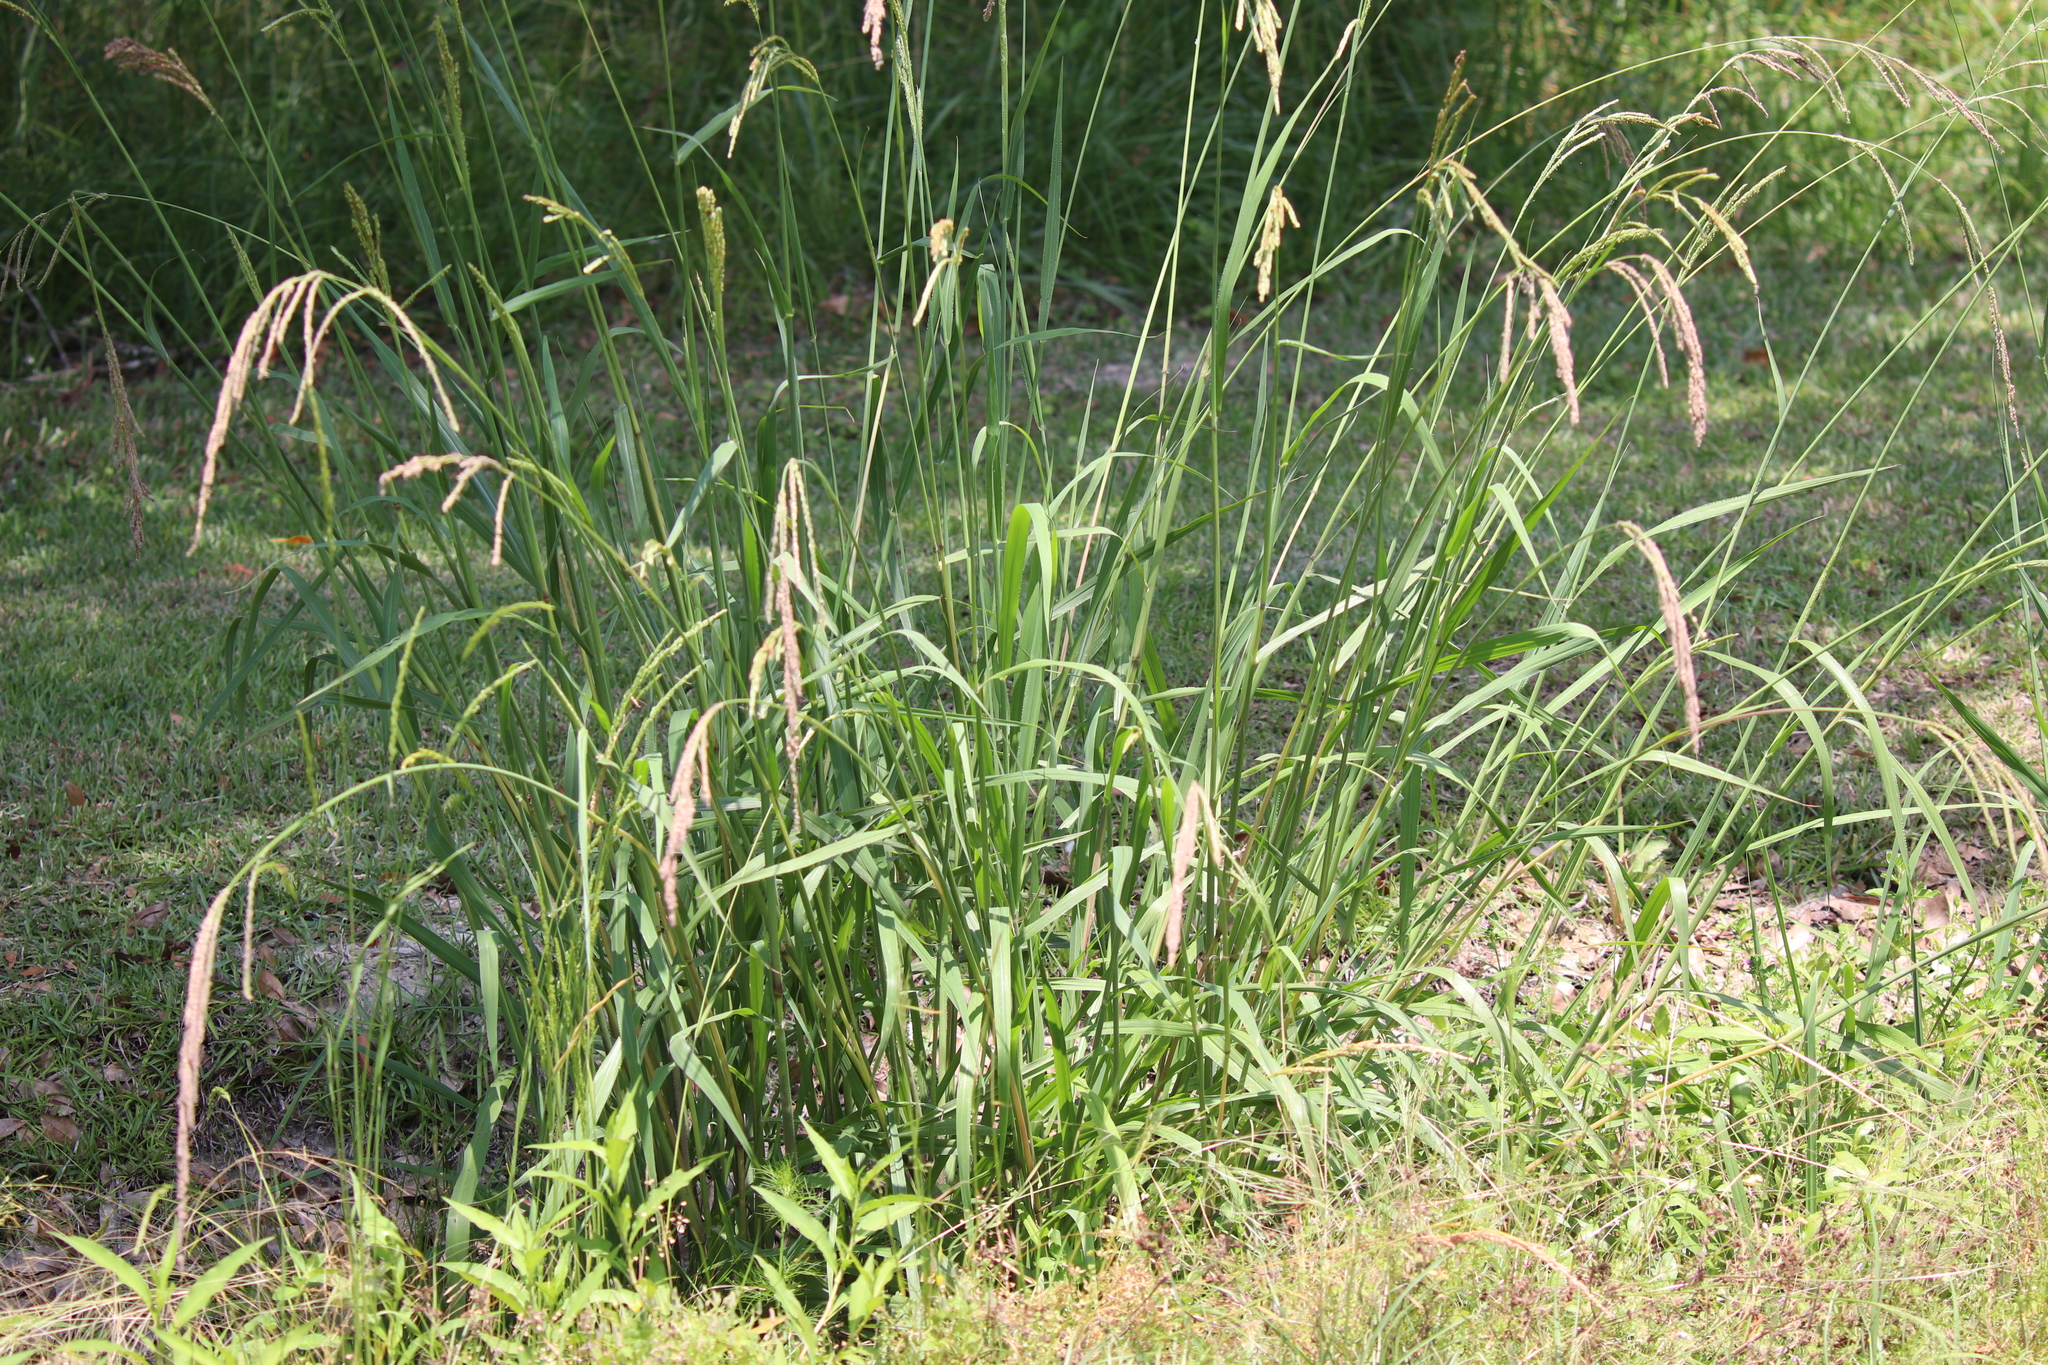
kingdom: Plantae
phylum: Tracheophyta
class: Liliopsida
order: Poales
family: Poaceae
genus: Paspalum
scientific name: Paspalum urvillei
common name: Vasey's grass
